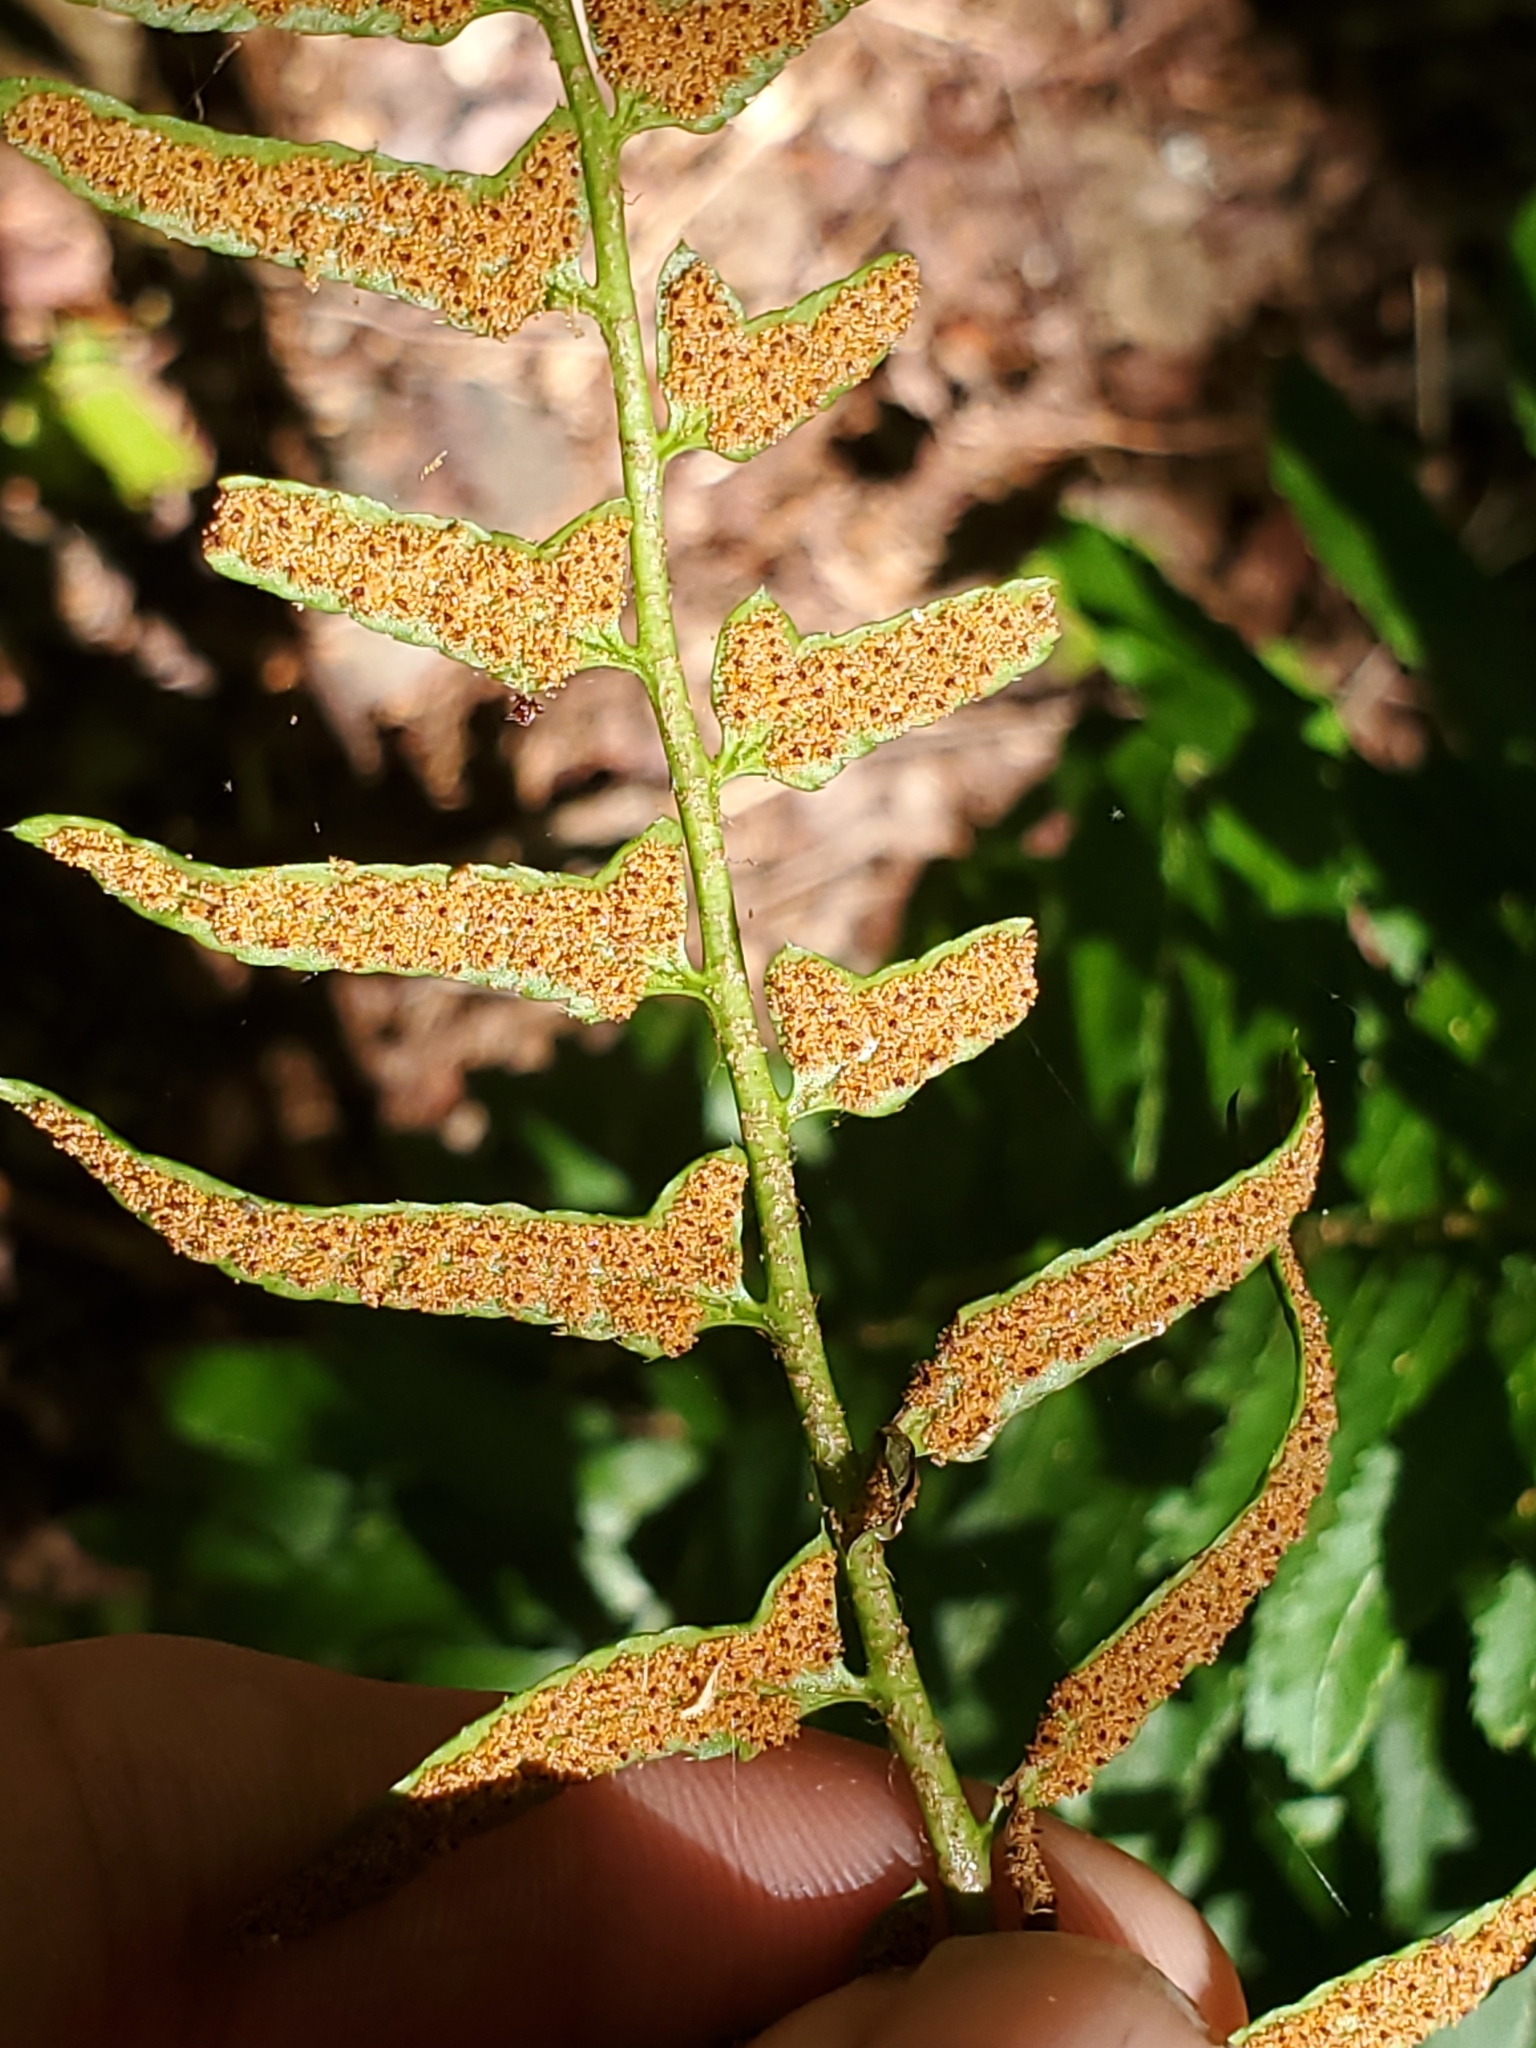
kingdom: Plantae
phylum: Tracheophyta
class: Polypodiopsida
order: Polypodiales
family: Dryopteridaceae
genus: Polystichum
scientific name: Polystichum acrostichoides
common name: Christmas fern
